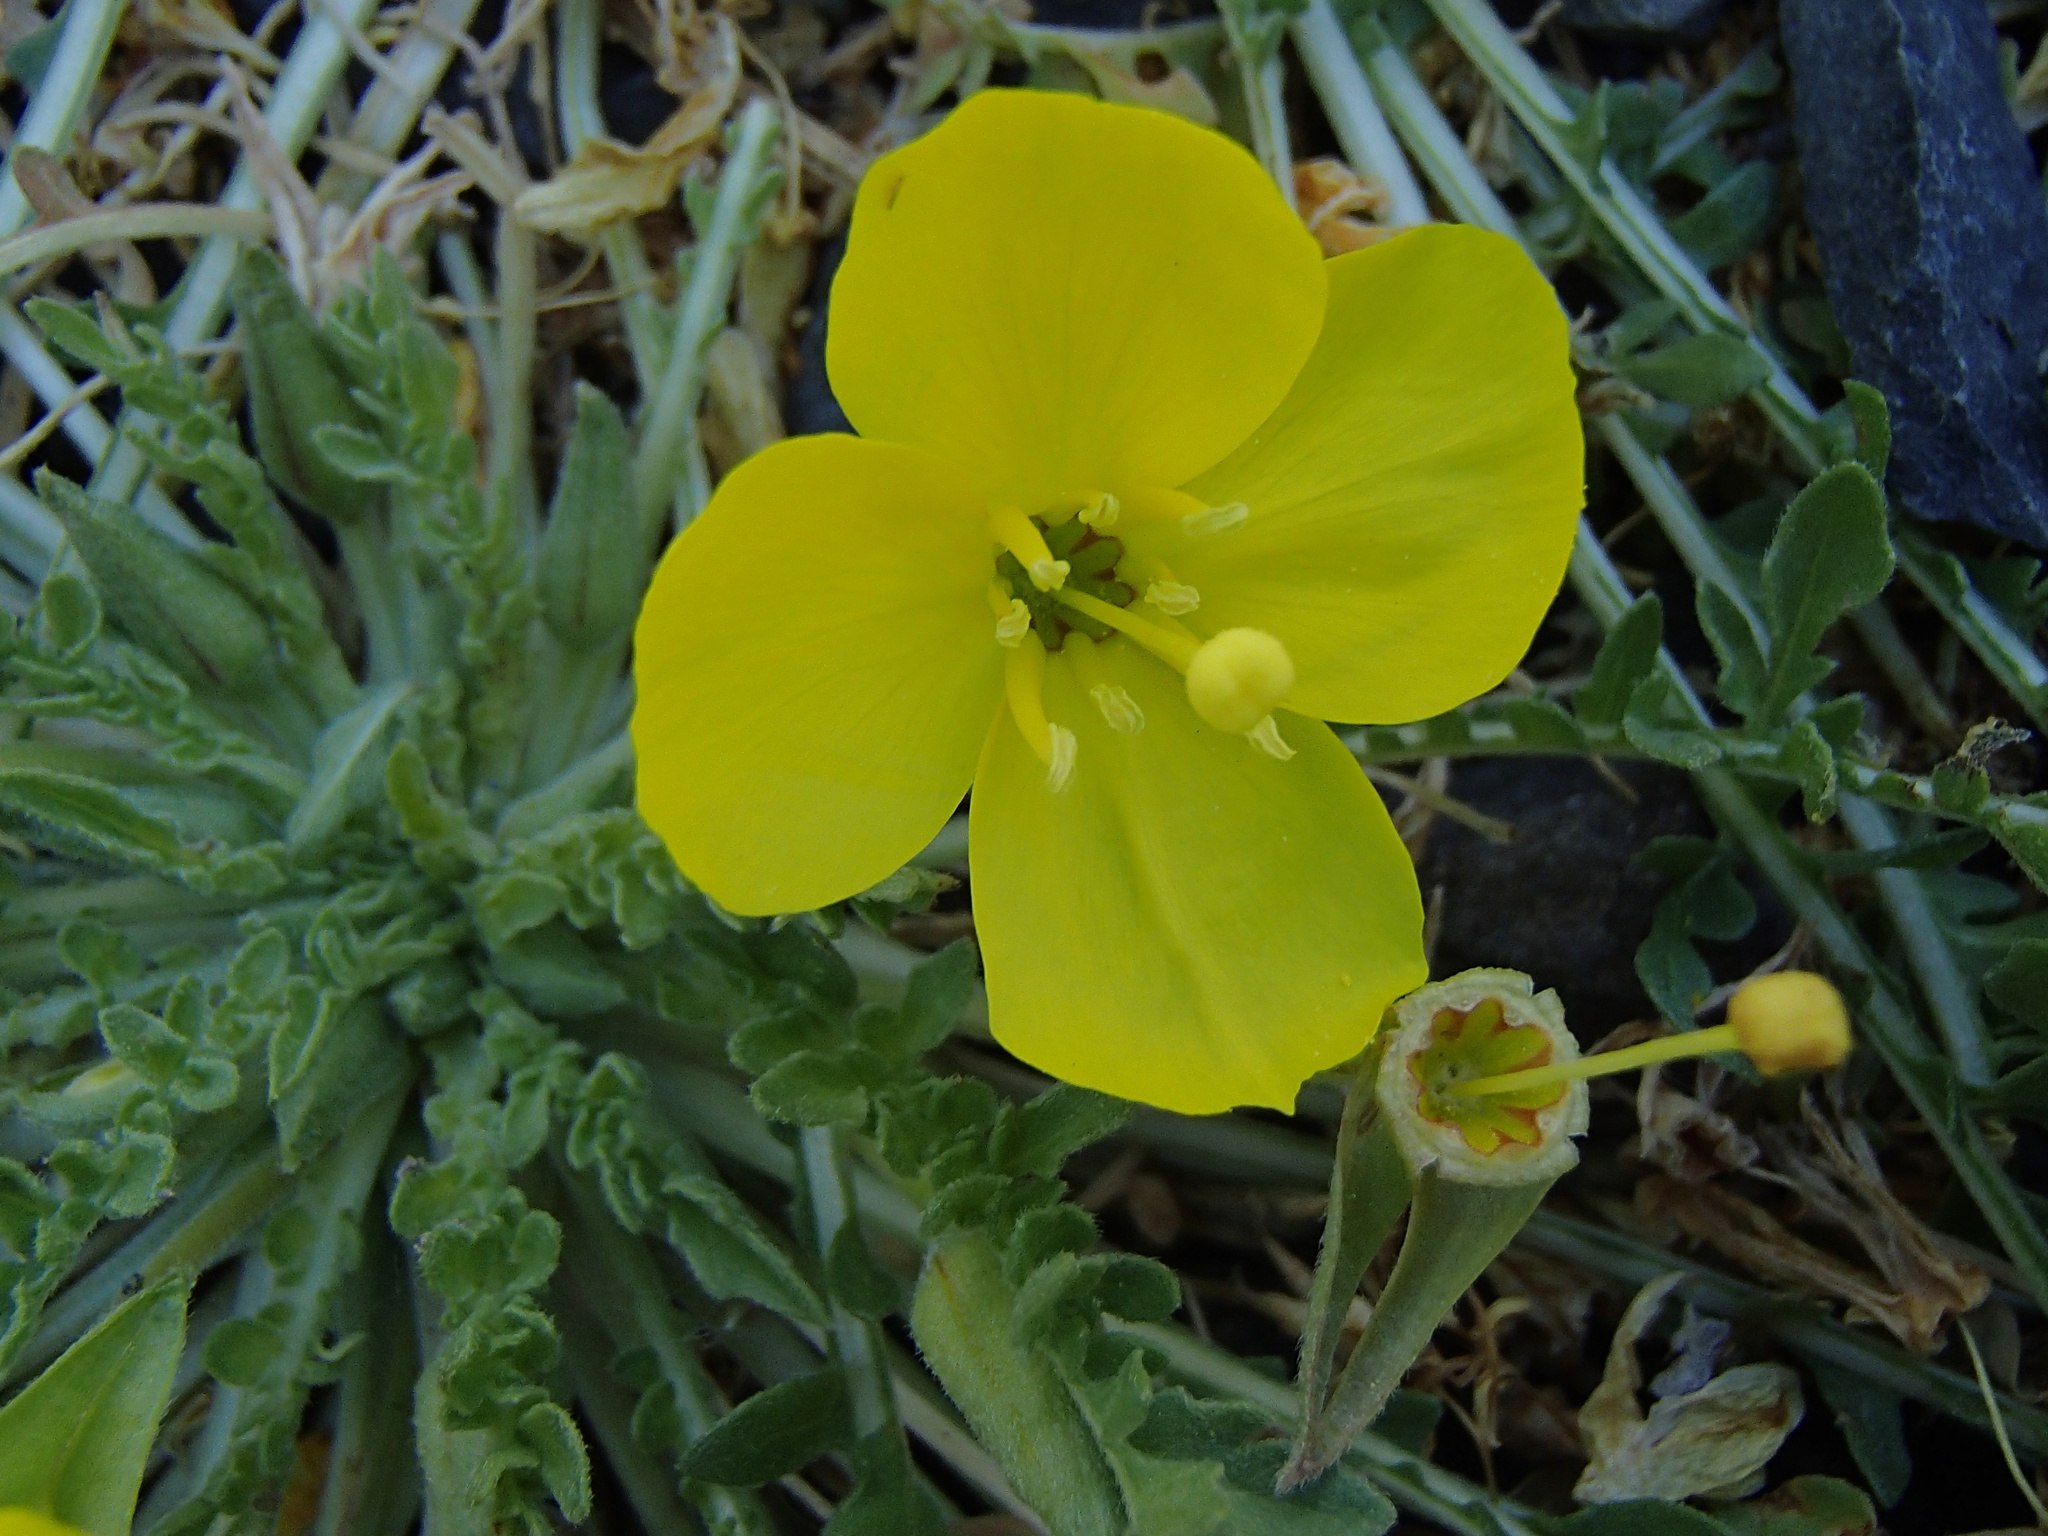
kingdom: Plantae
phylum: Tracheophyta
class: Magnoliopsida
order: Myrtales
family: Onagraceae
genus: Taraxia
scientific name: Taraxia tanacetifolia
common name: Tansyleaf evening primrose
